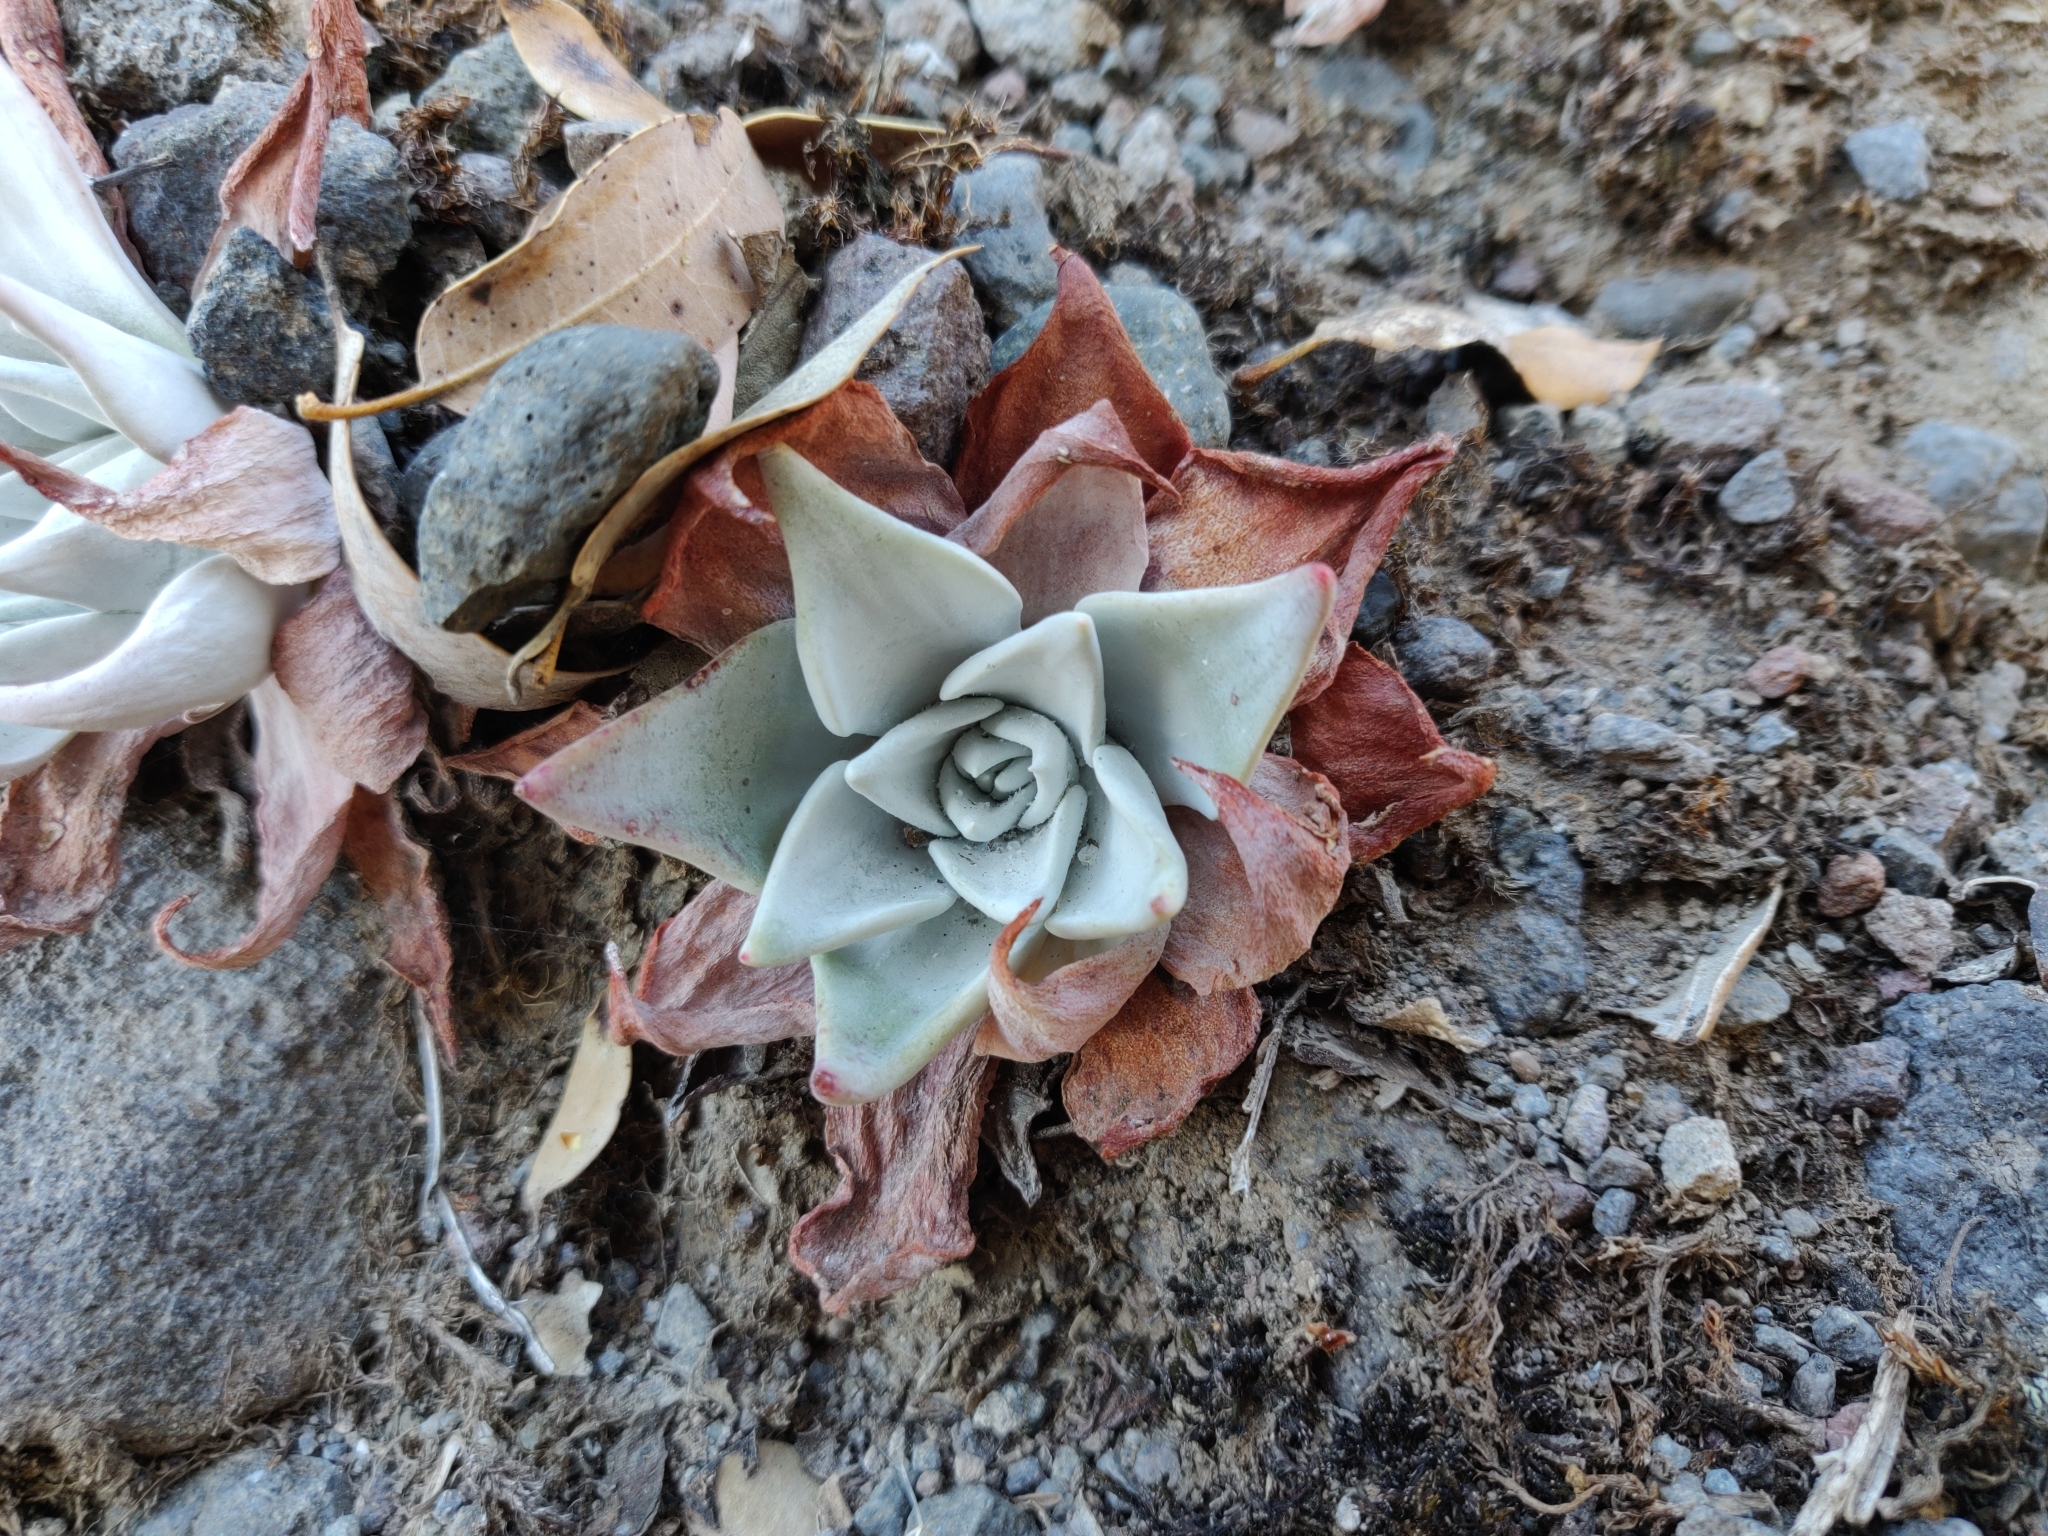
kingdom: Plantae
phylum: Tracheophyta
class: Magnoliopsida
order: Saxifragales
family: Crassulaceae
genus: Dudleya
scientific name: Dudleya cymosa
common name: Canyon dudleya
